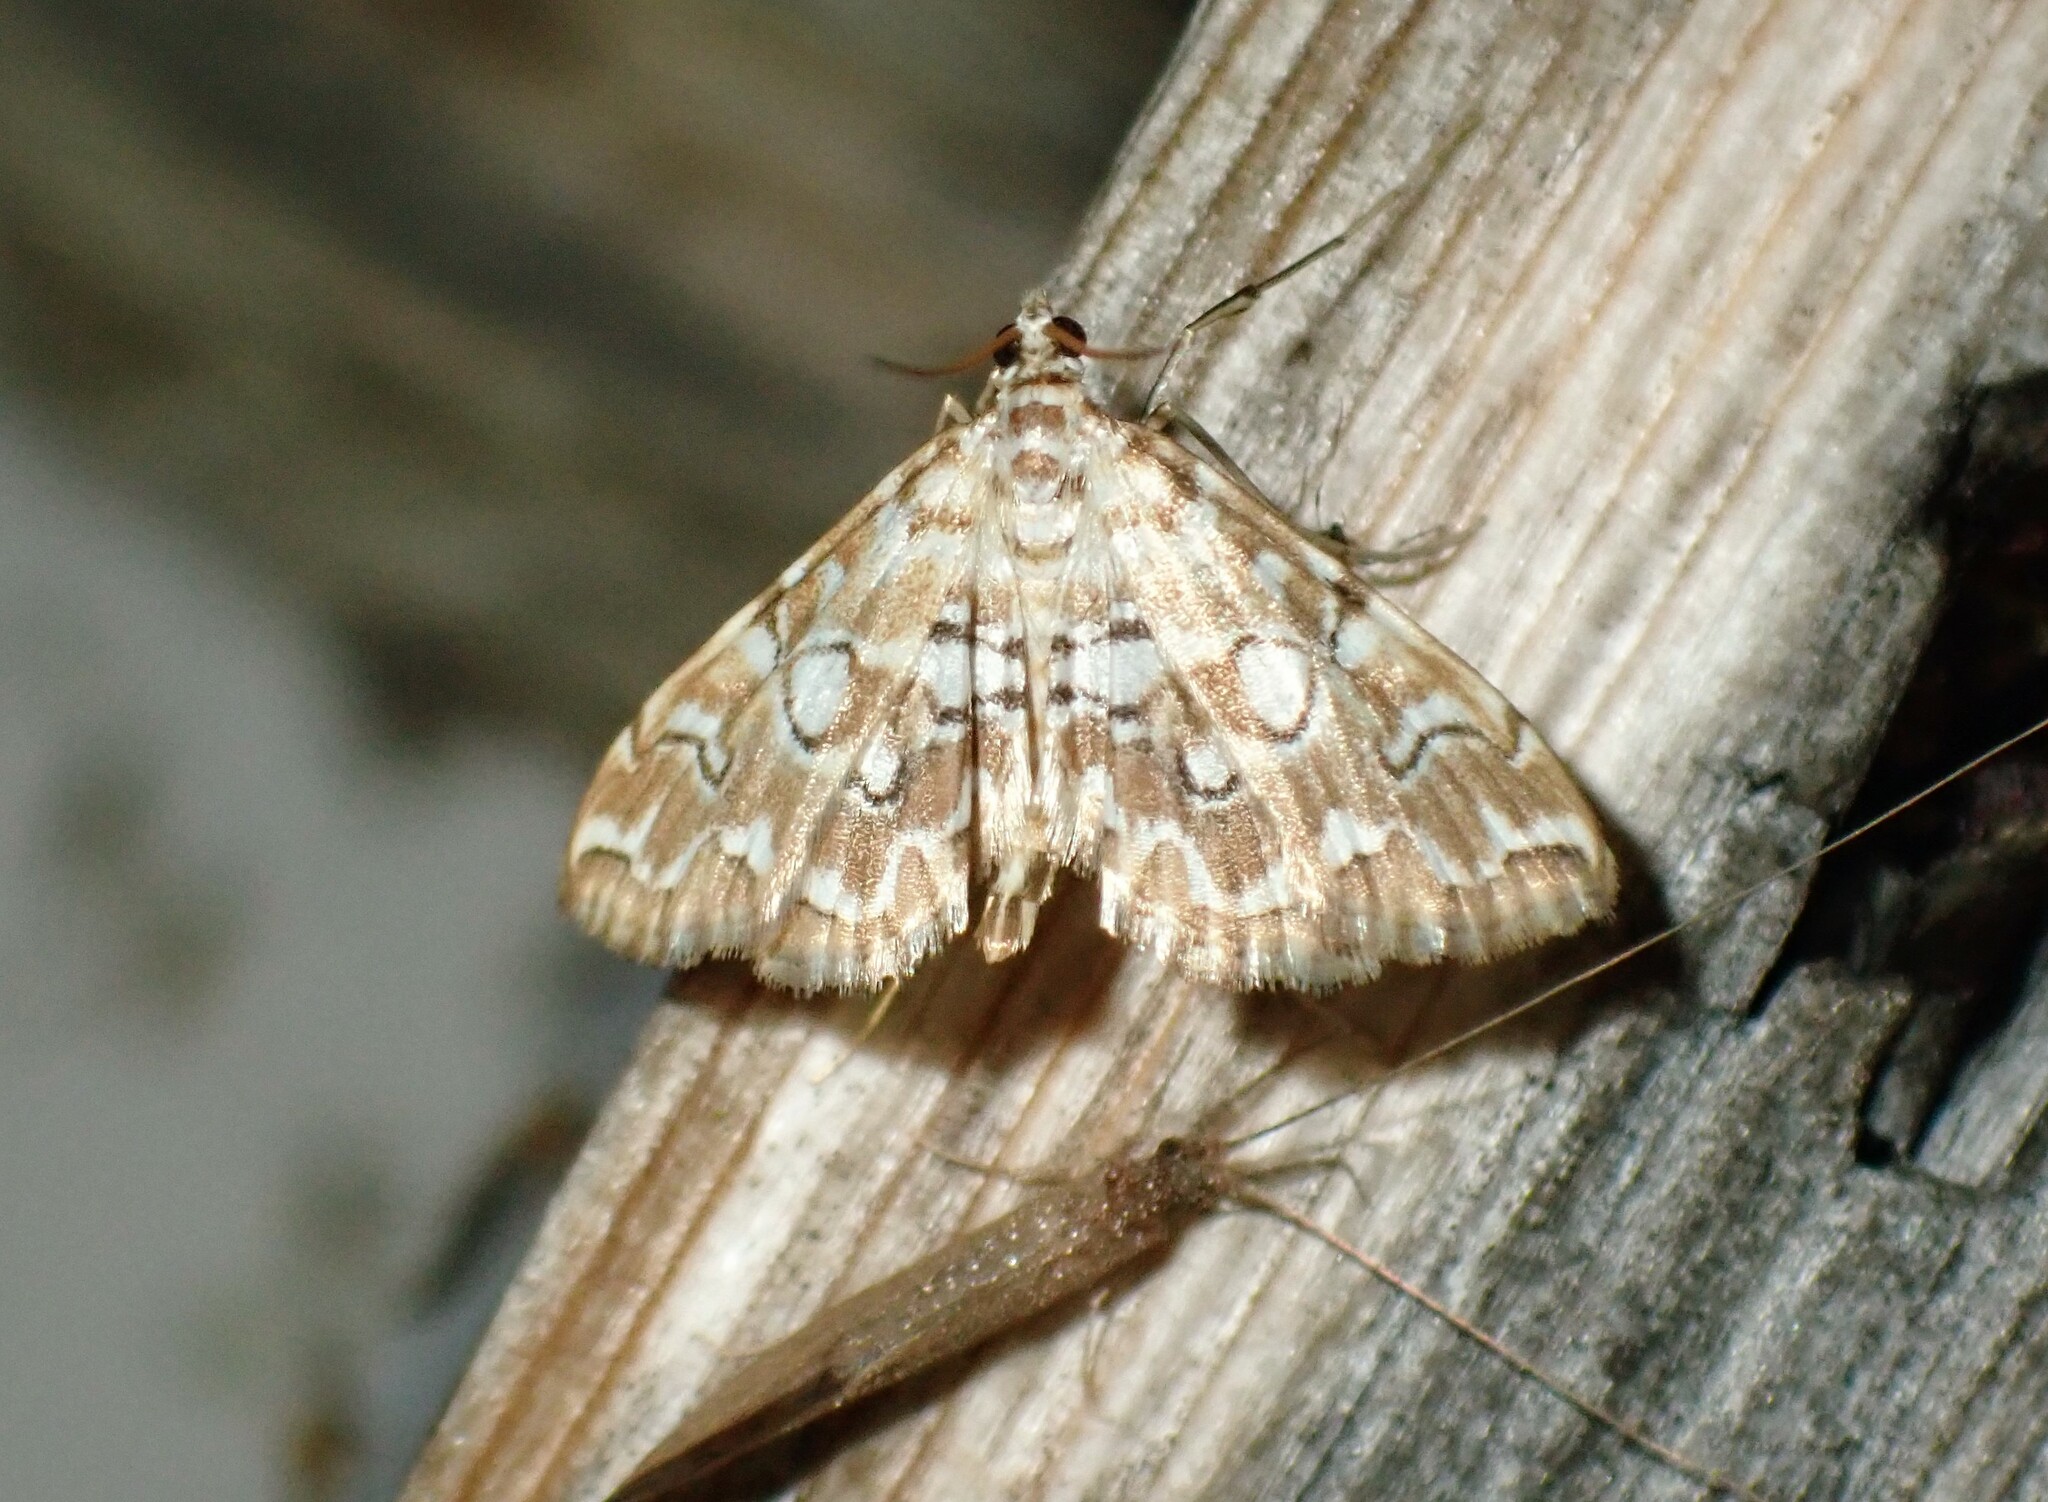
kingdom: Animalia
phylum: Arthropoda
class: Insecta
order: Lepidoptera
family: Crambidae
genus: Elophila
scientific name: Elophila icciusalis
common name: Pondside pyralid moth
